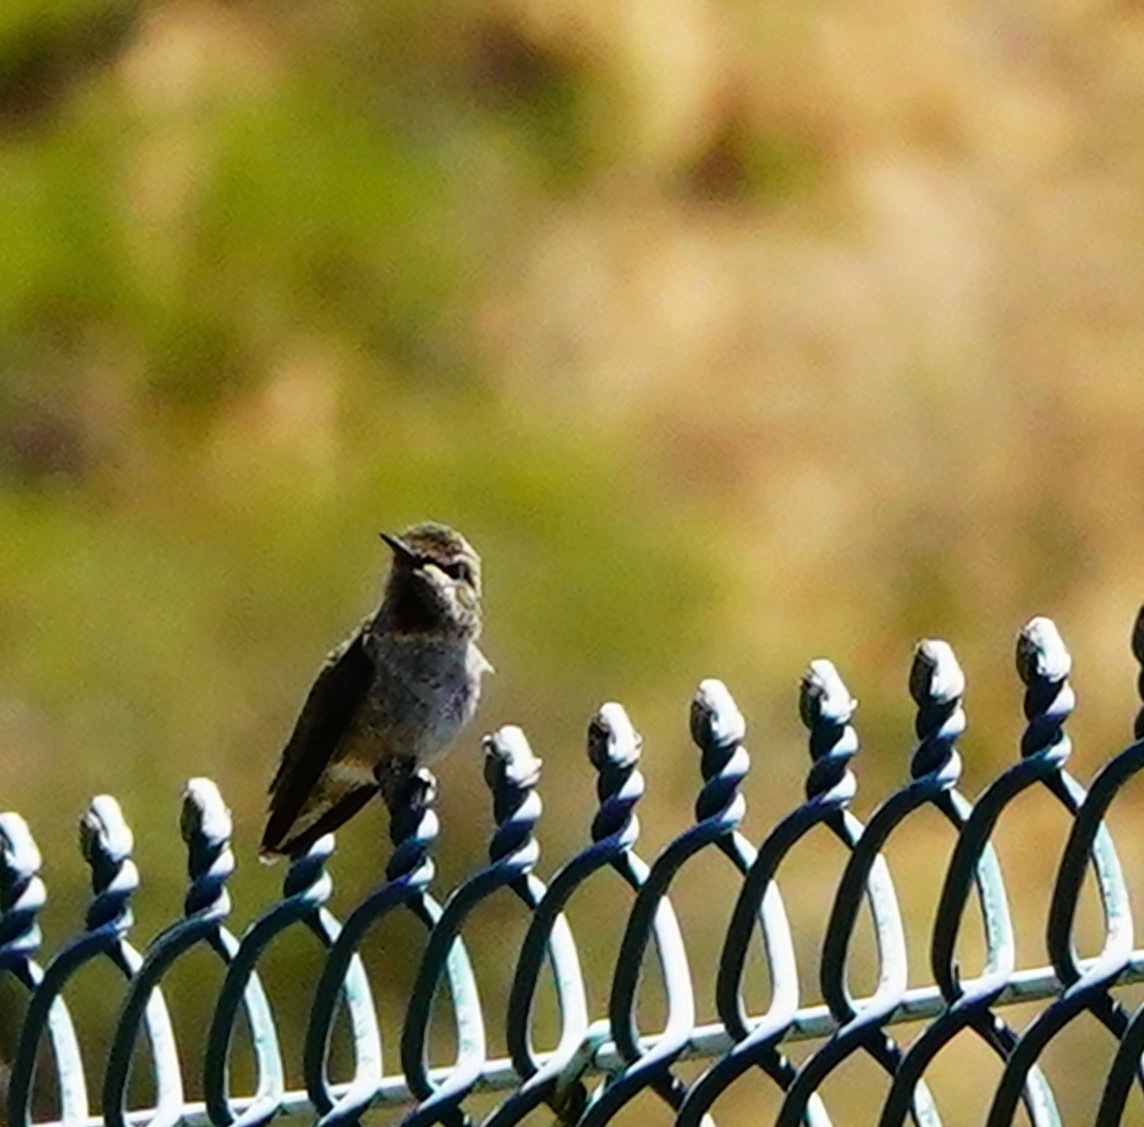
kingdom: Animalia
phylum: Chordata
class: Aves
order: Apodiformes
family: Trochilidae
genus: Calypte
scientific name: Calypte anna
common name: Anna's hummingbird
